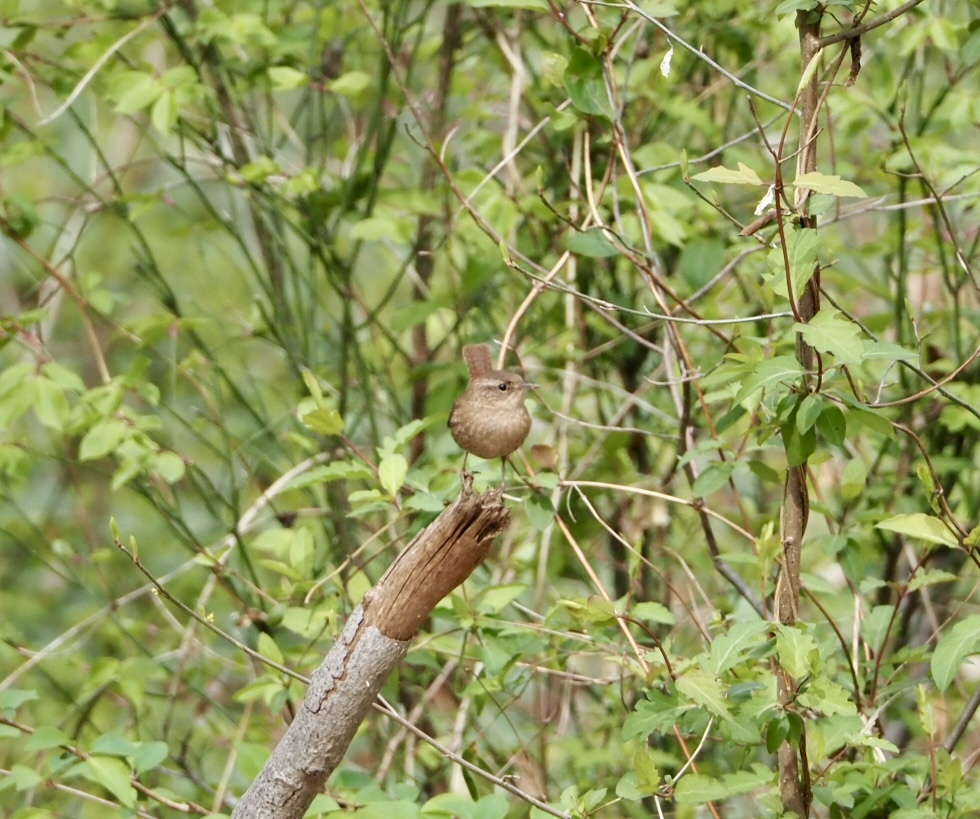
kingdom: Animalia
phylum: Chordata
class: Aves
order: Passeriformes
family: Troglodytidae
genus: Troglodytes
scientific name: Troglodytes hiemalis
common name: Winter wren
